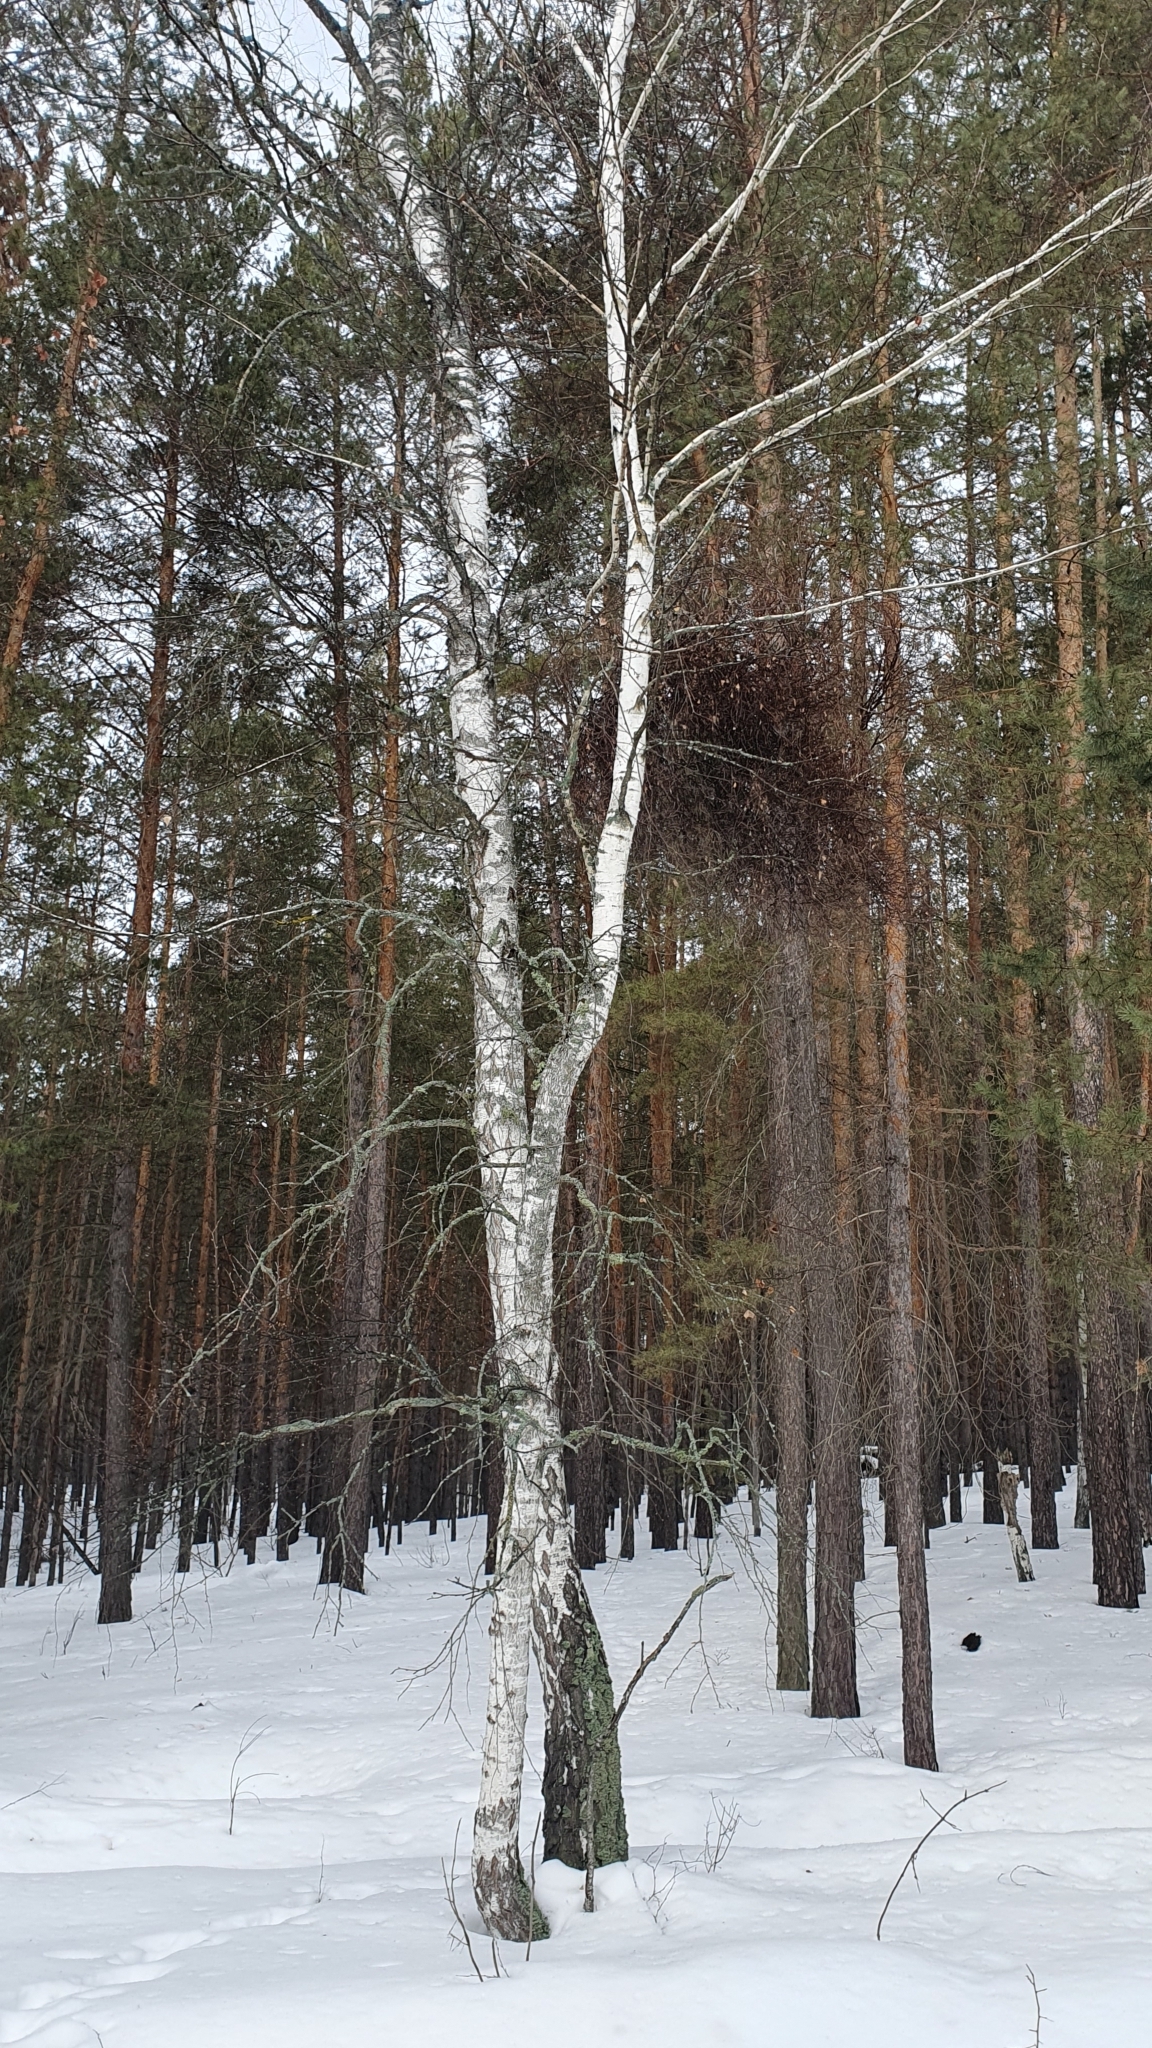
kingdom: Plantae
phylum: Tracheophyta
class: Magnoliopsida
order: Fagales
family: Betulaceae
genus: Betula
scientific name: Betula pendula
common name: Silver birch
